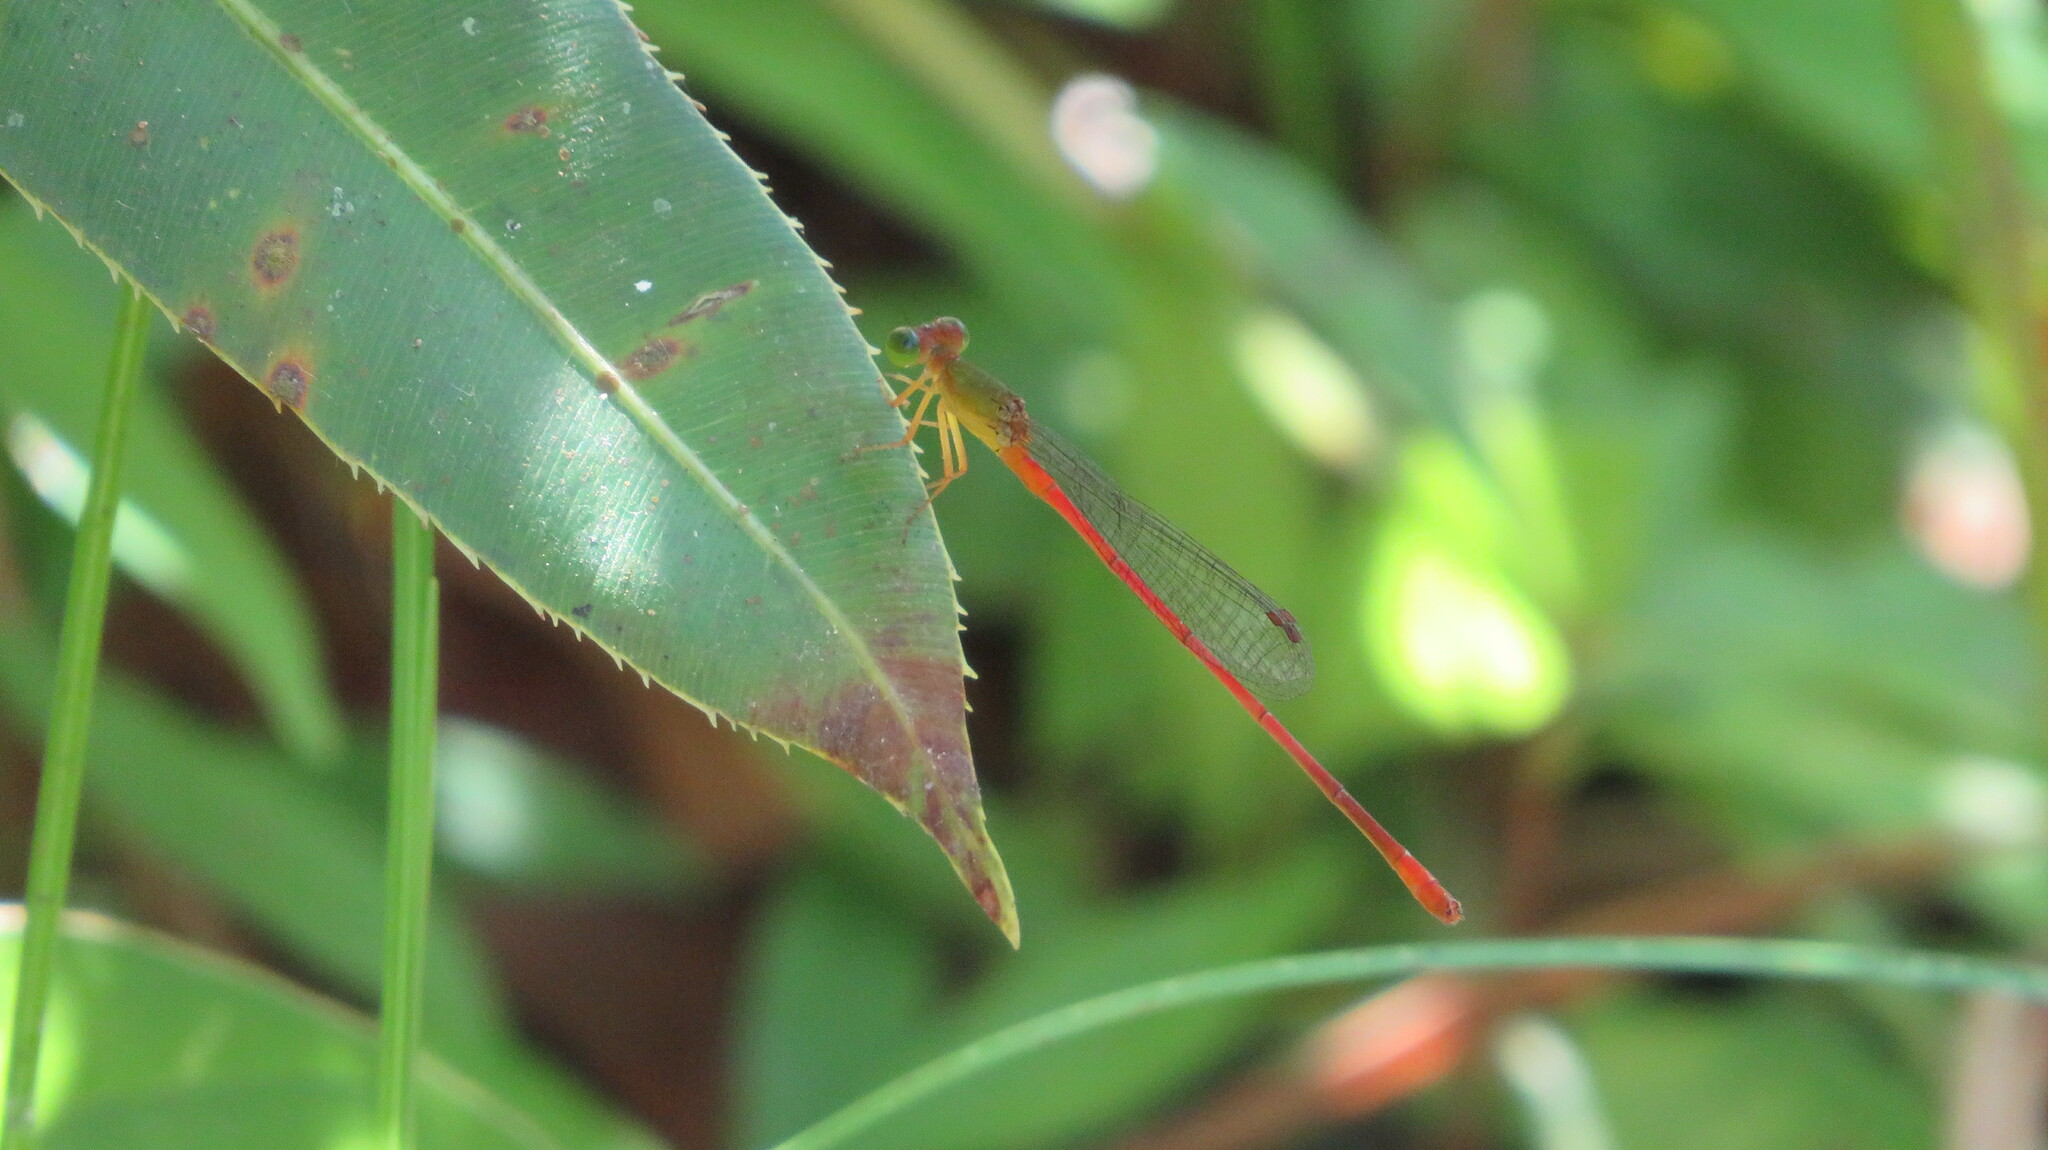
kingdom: Animalia
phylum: Arthropoda
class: Insecta
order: Odonata
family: Coenagrionidae
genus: Ceriagrion
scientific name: Ceriagrion auranticum
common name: Orange-tailed sprite
